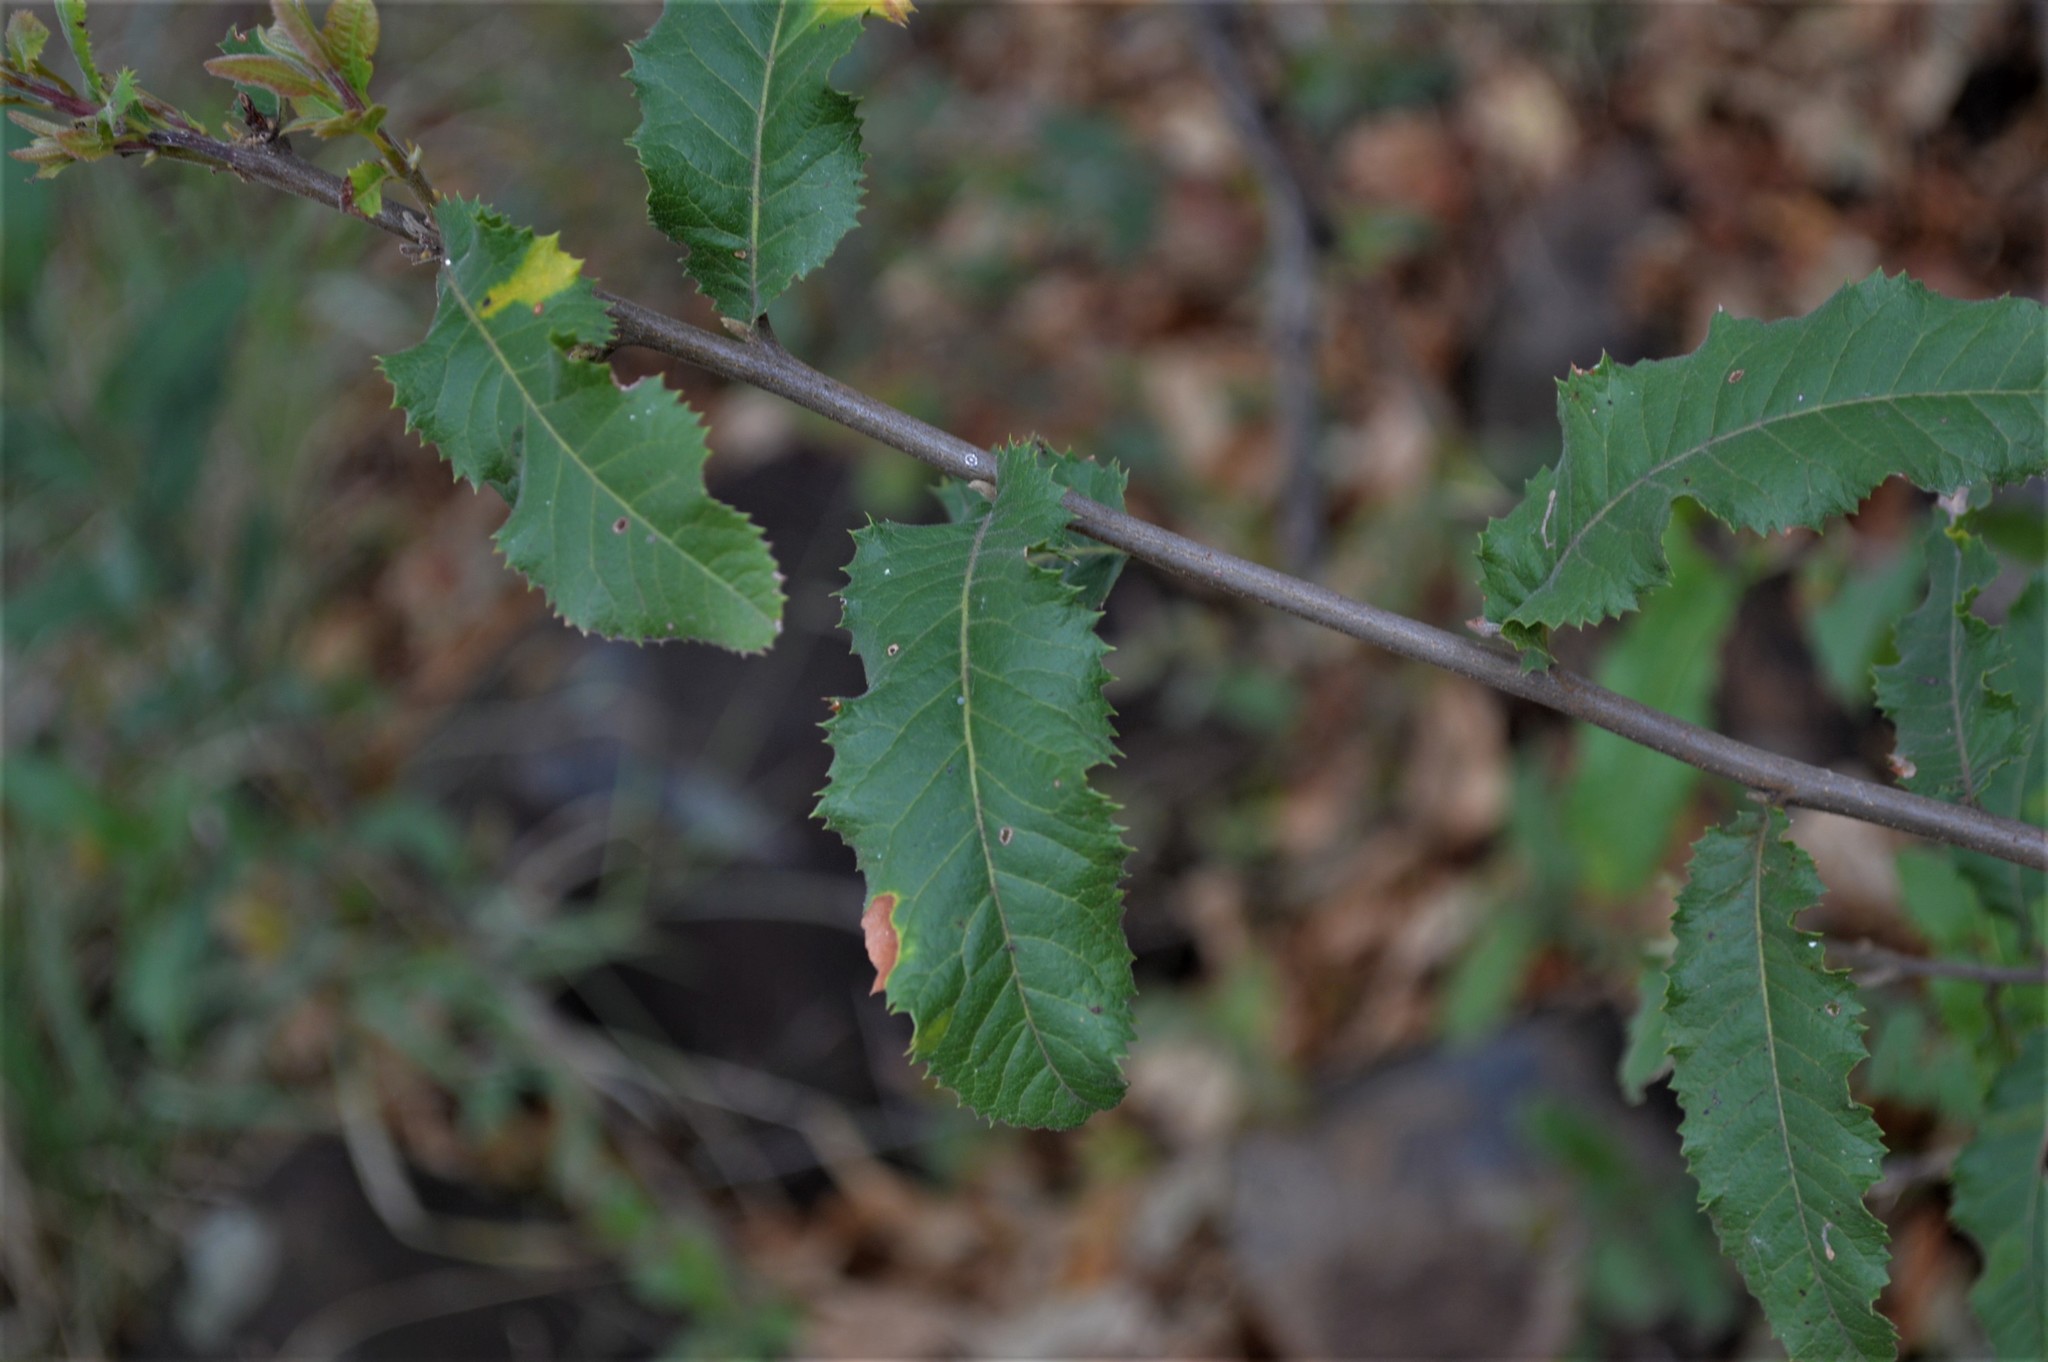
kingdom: Plantae
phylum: Tracheophyta
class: Magnoliopsida
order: Sapindales
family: Sapindaceae
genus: Pappea
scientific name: Pappea capensis
